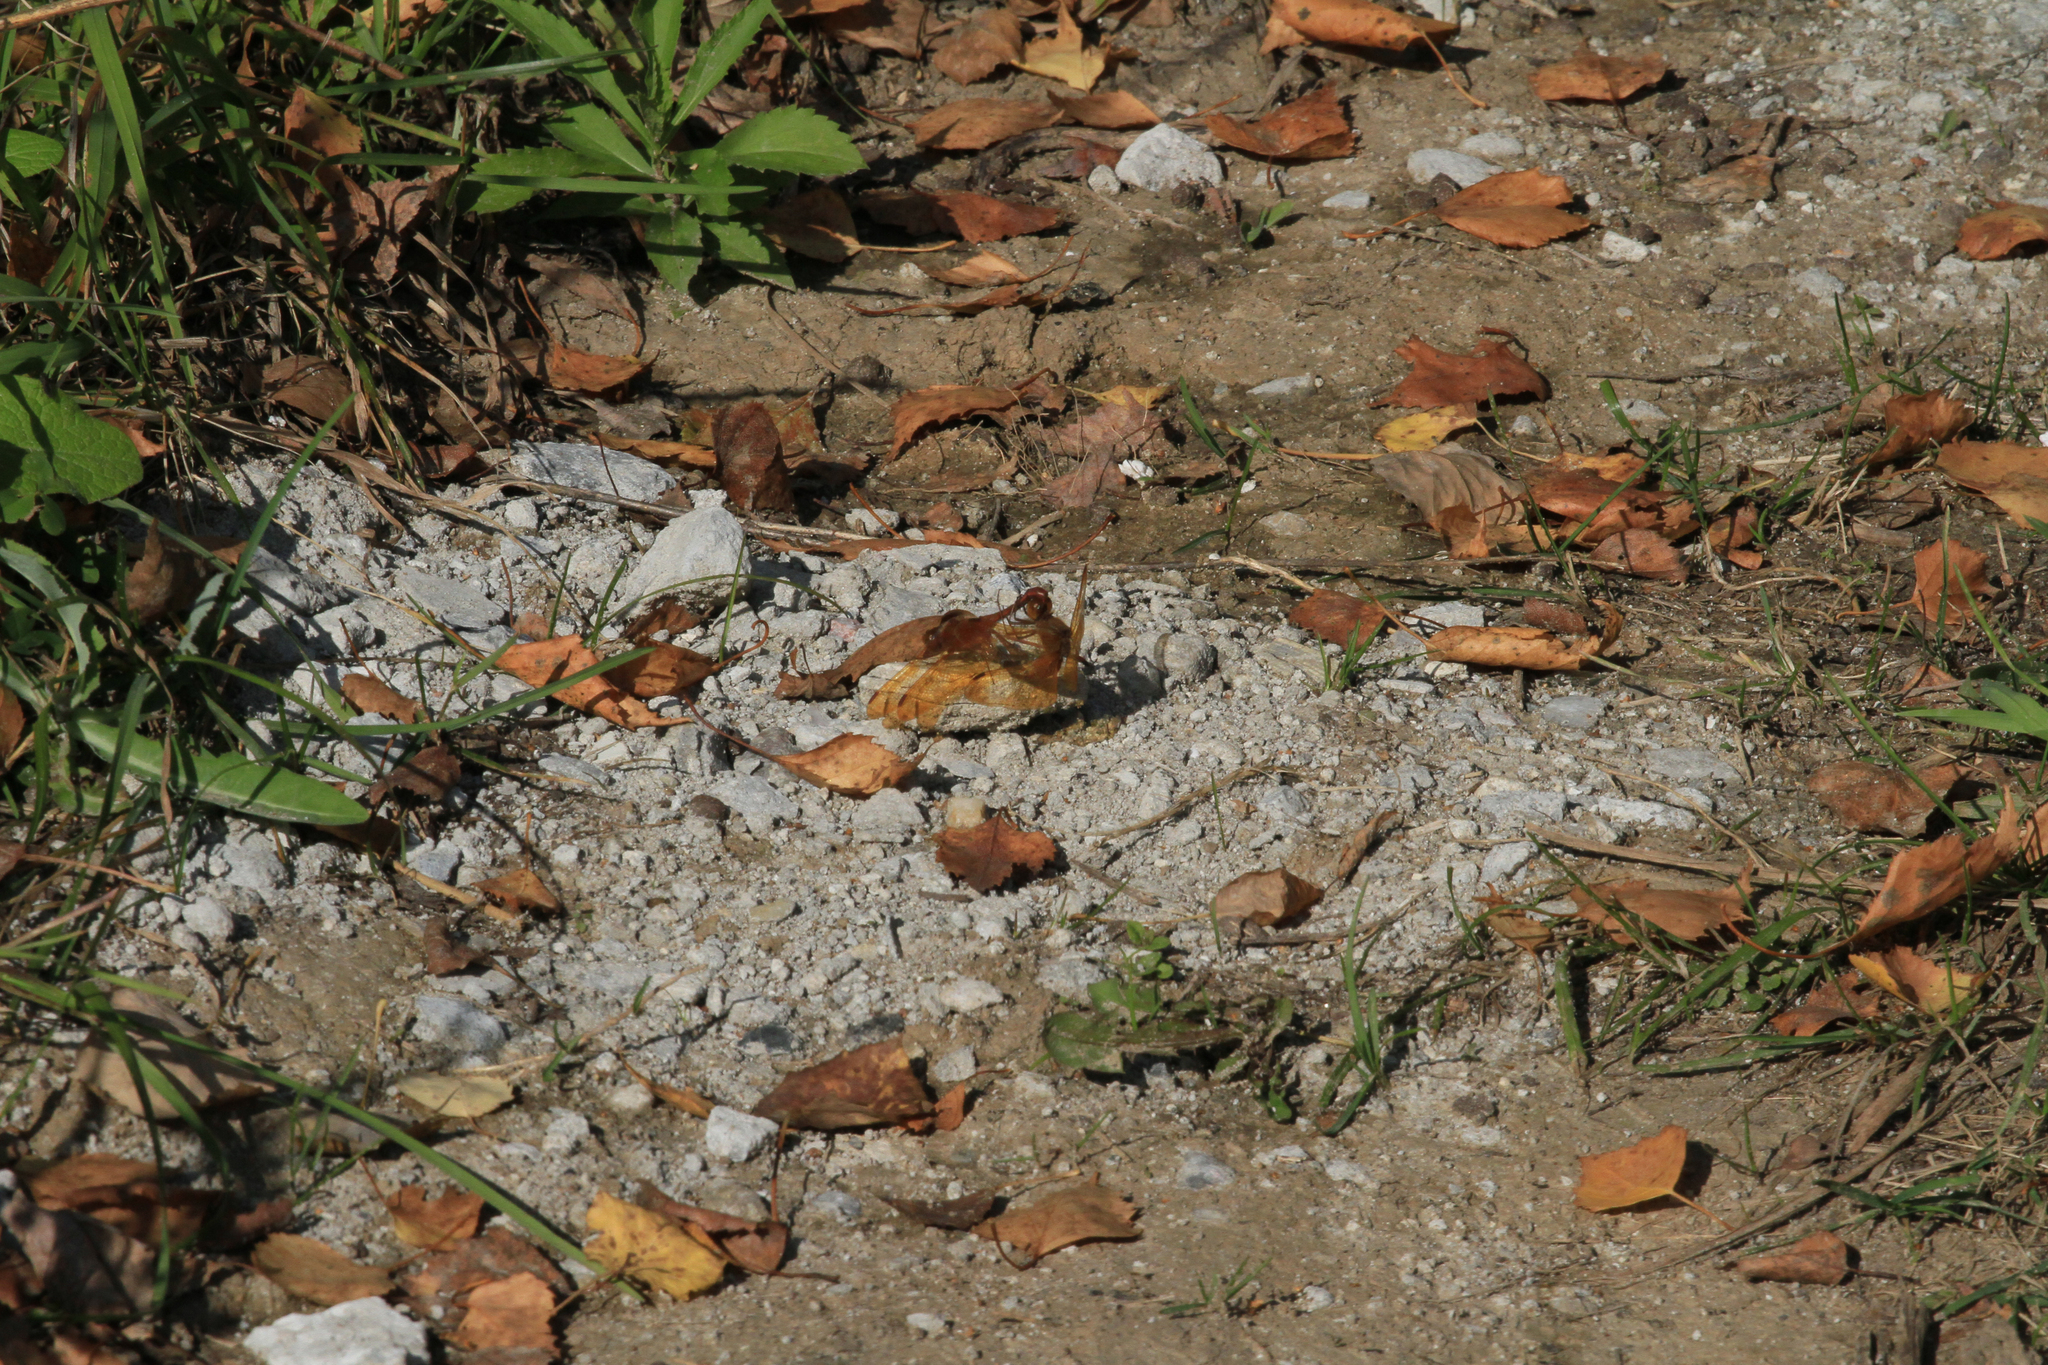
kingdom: Animalia
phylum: Arthropoda
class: Insecta
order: Odonata
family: Libellulidae
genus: Sympetrum
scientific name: Sympetrum croceolum
